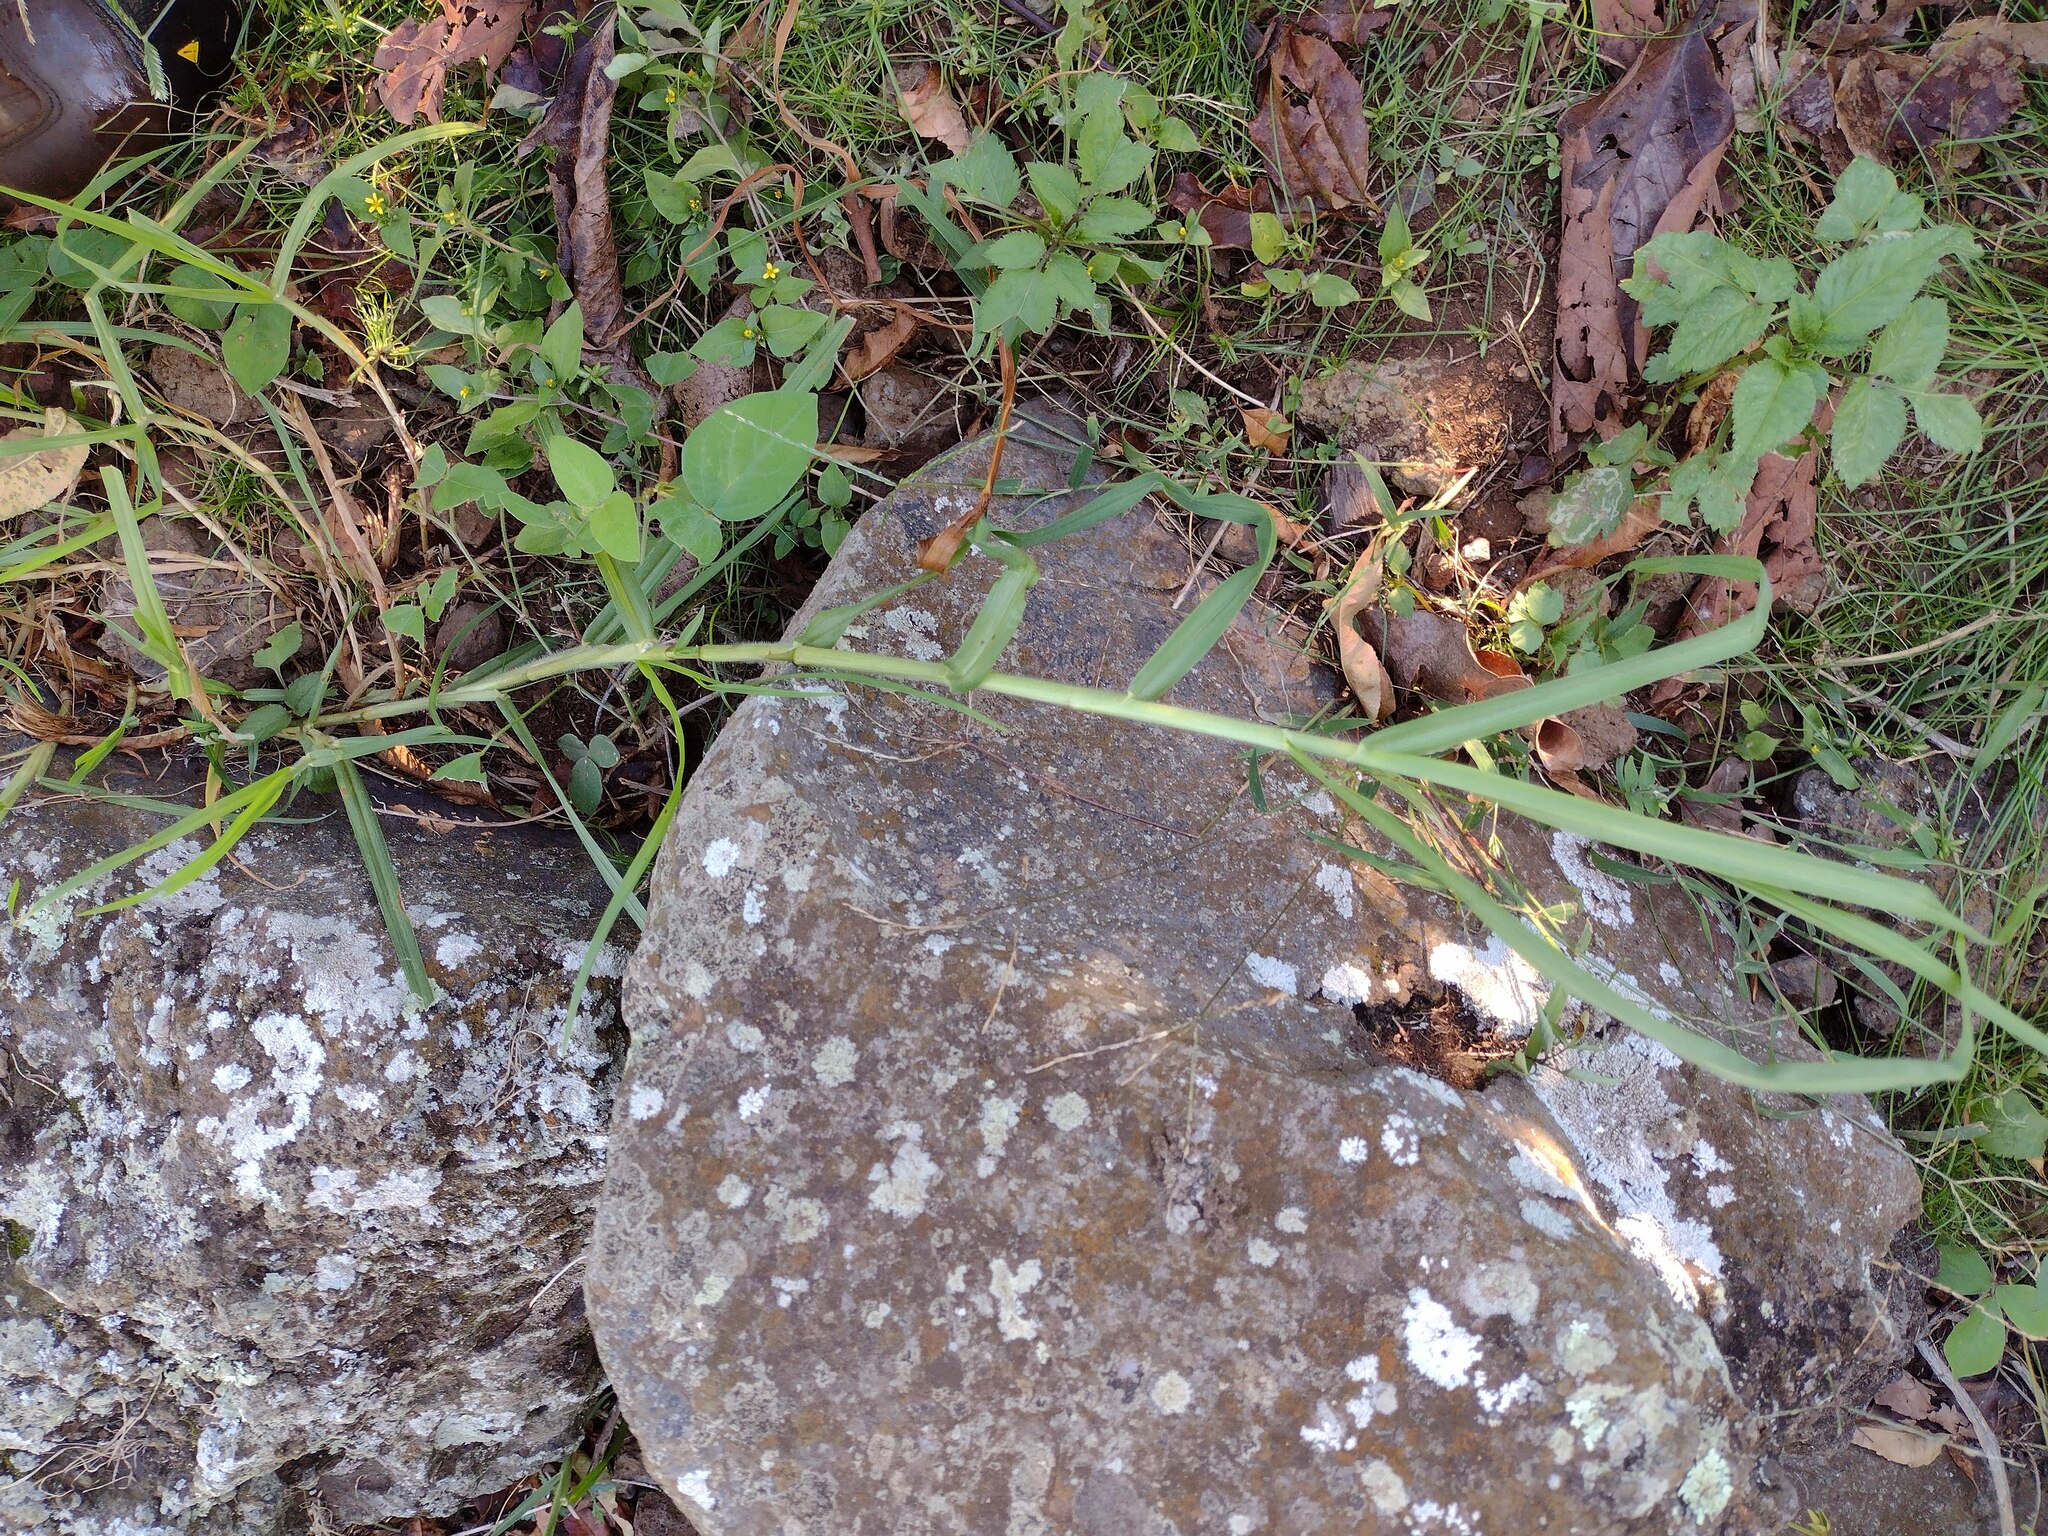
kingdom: Plantae
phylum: Tracheophyta
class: Liliopsida
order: Poales
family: Poaceae
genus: Urochloa
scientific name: Urochloa mutica
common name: Para grass
